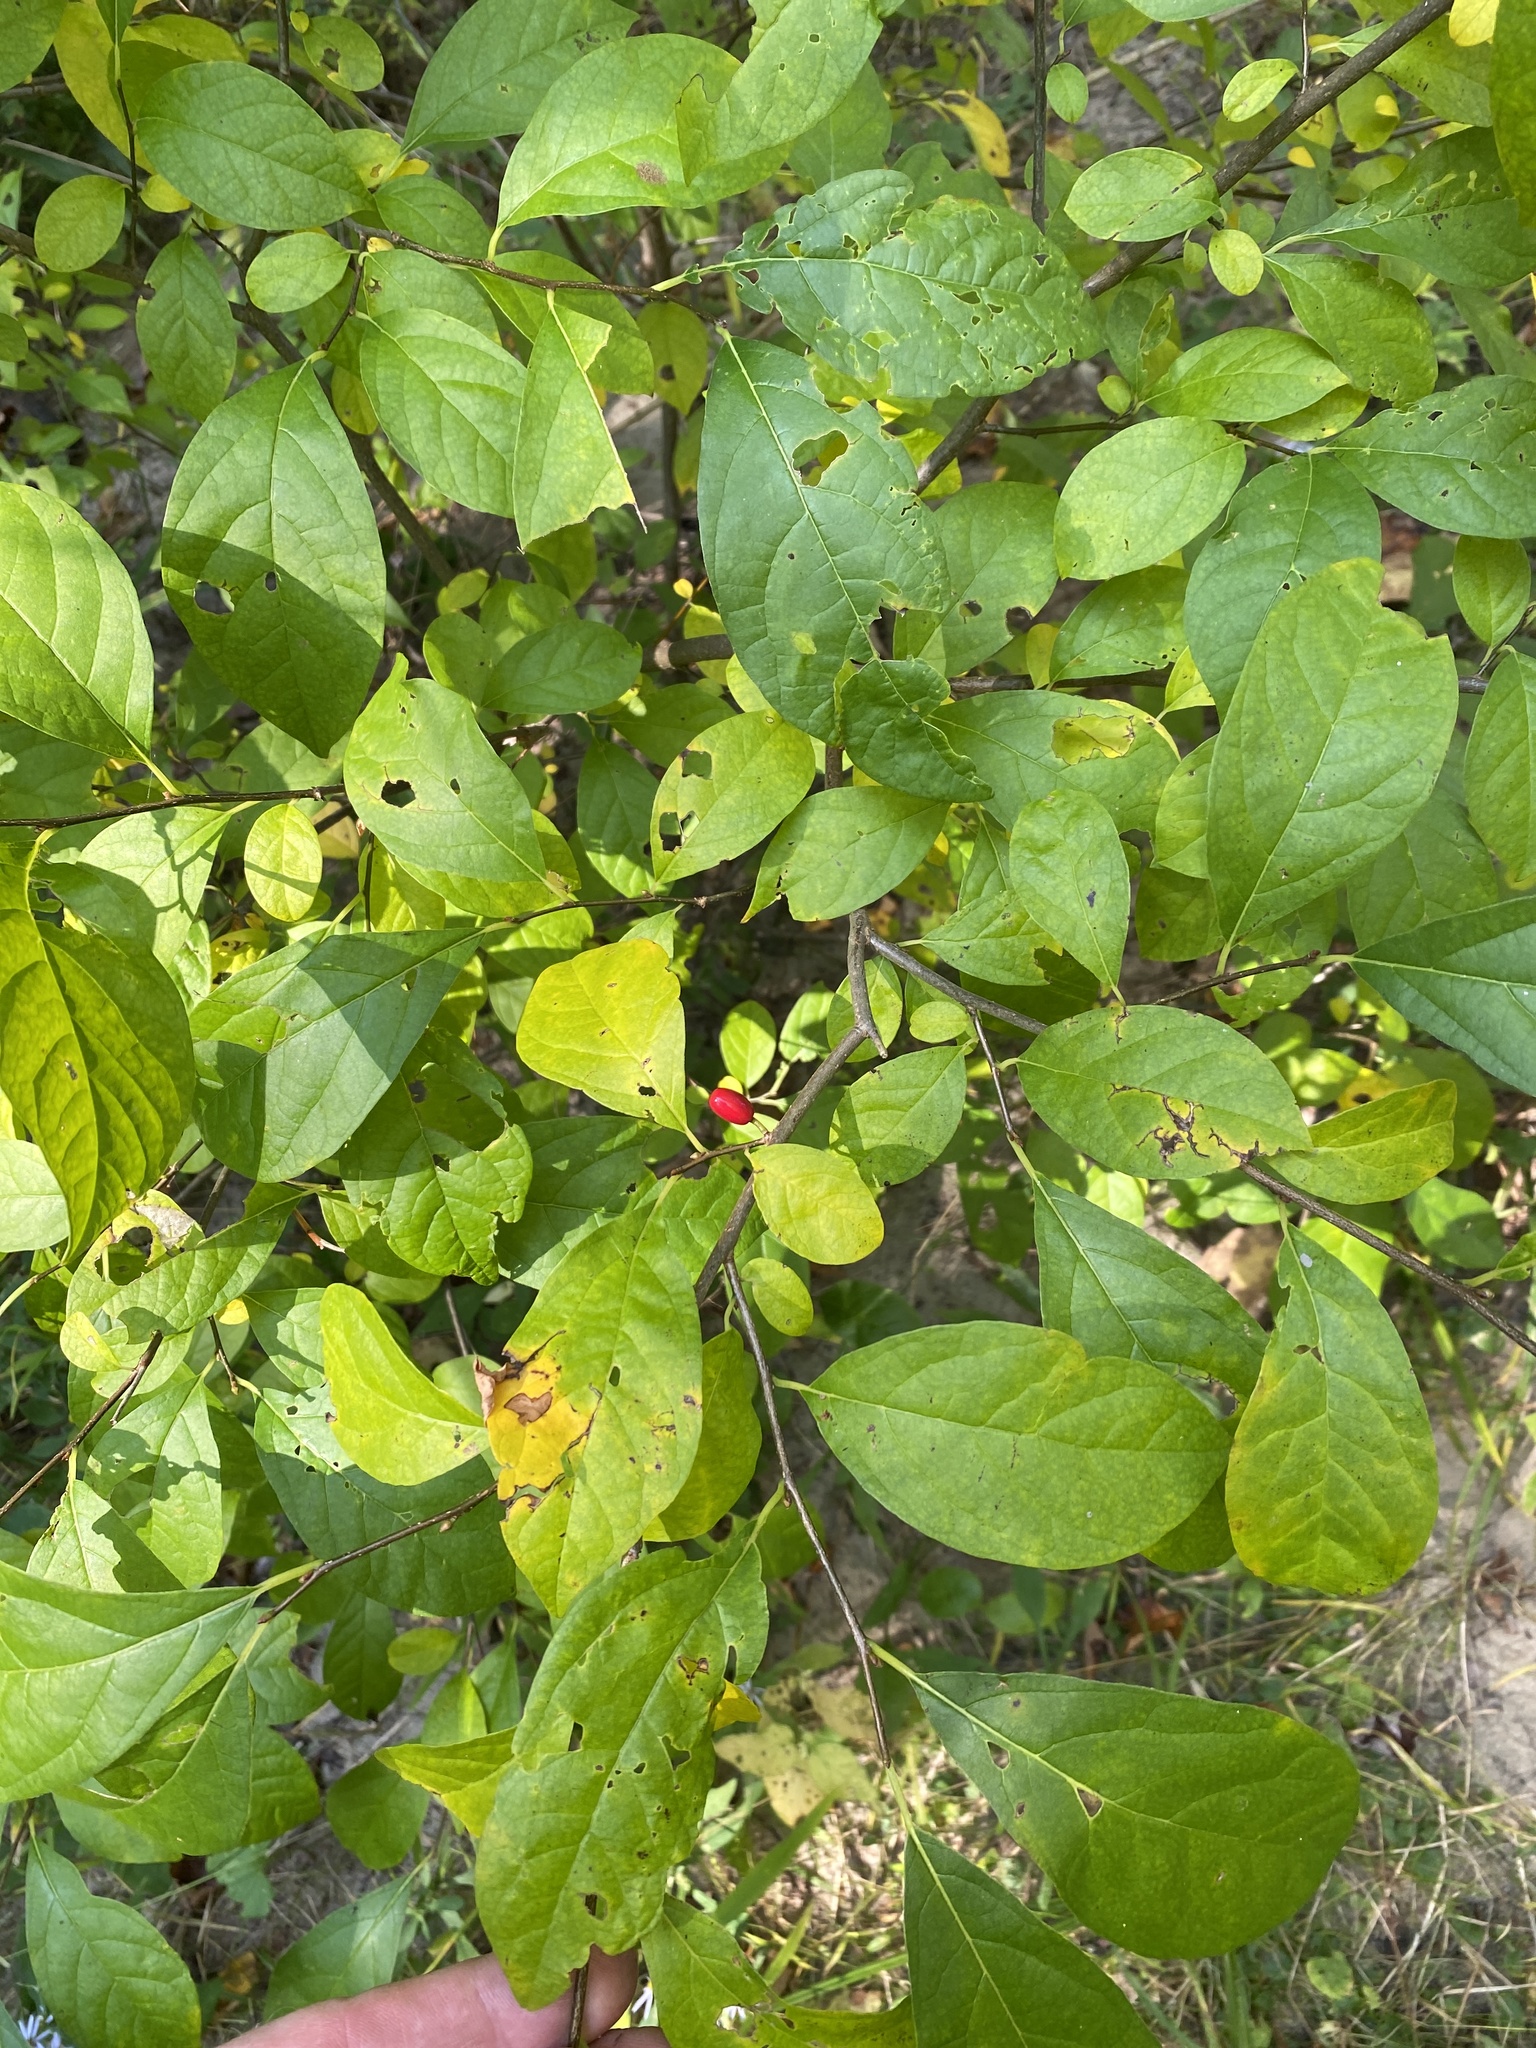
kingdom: Plantae
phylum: Tracheophyta
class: Magnoliopsida
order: Laurales
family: Lauraceae
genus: Lindera
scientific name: Lindera benzoin
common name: Spicebush
